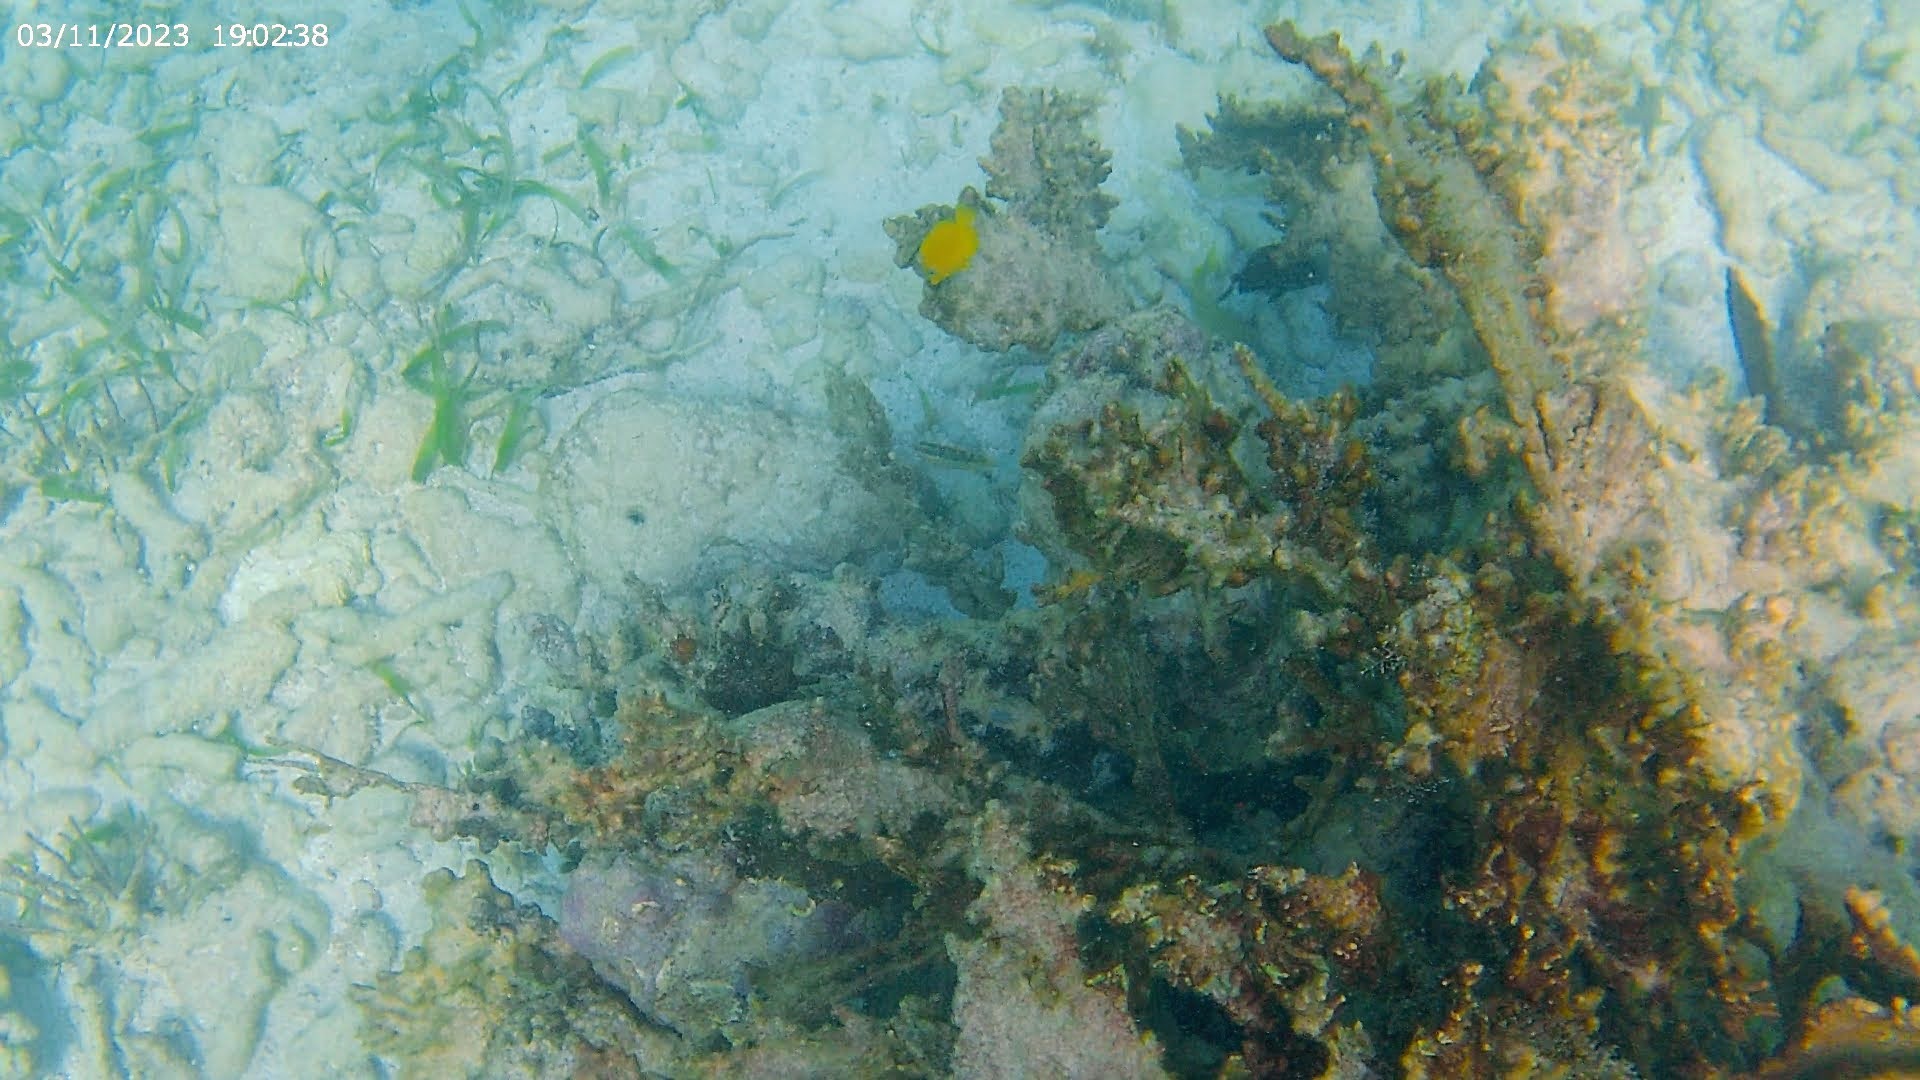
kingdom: Animalia
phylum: Chordata
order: Perciformes
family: Acanthuridae
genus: Acanthurus
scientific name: Acanthurus coeruleus
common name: Blue tang
